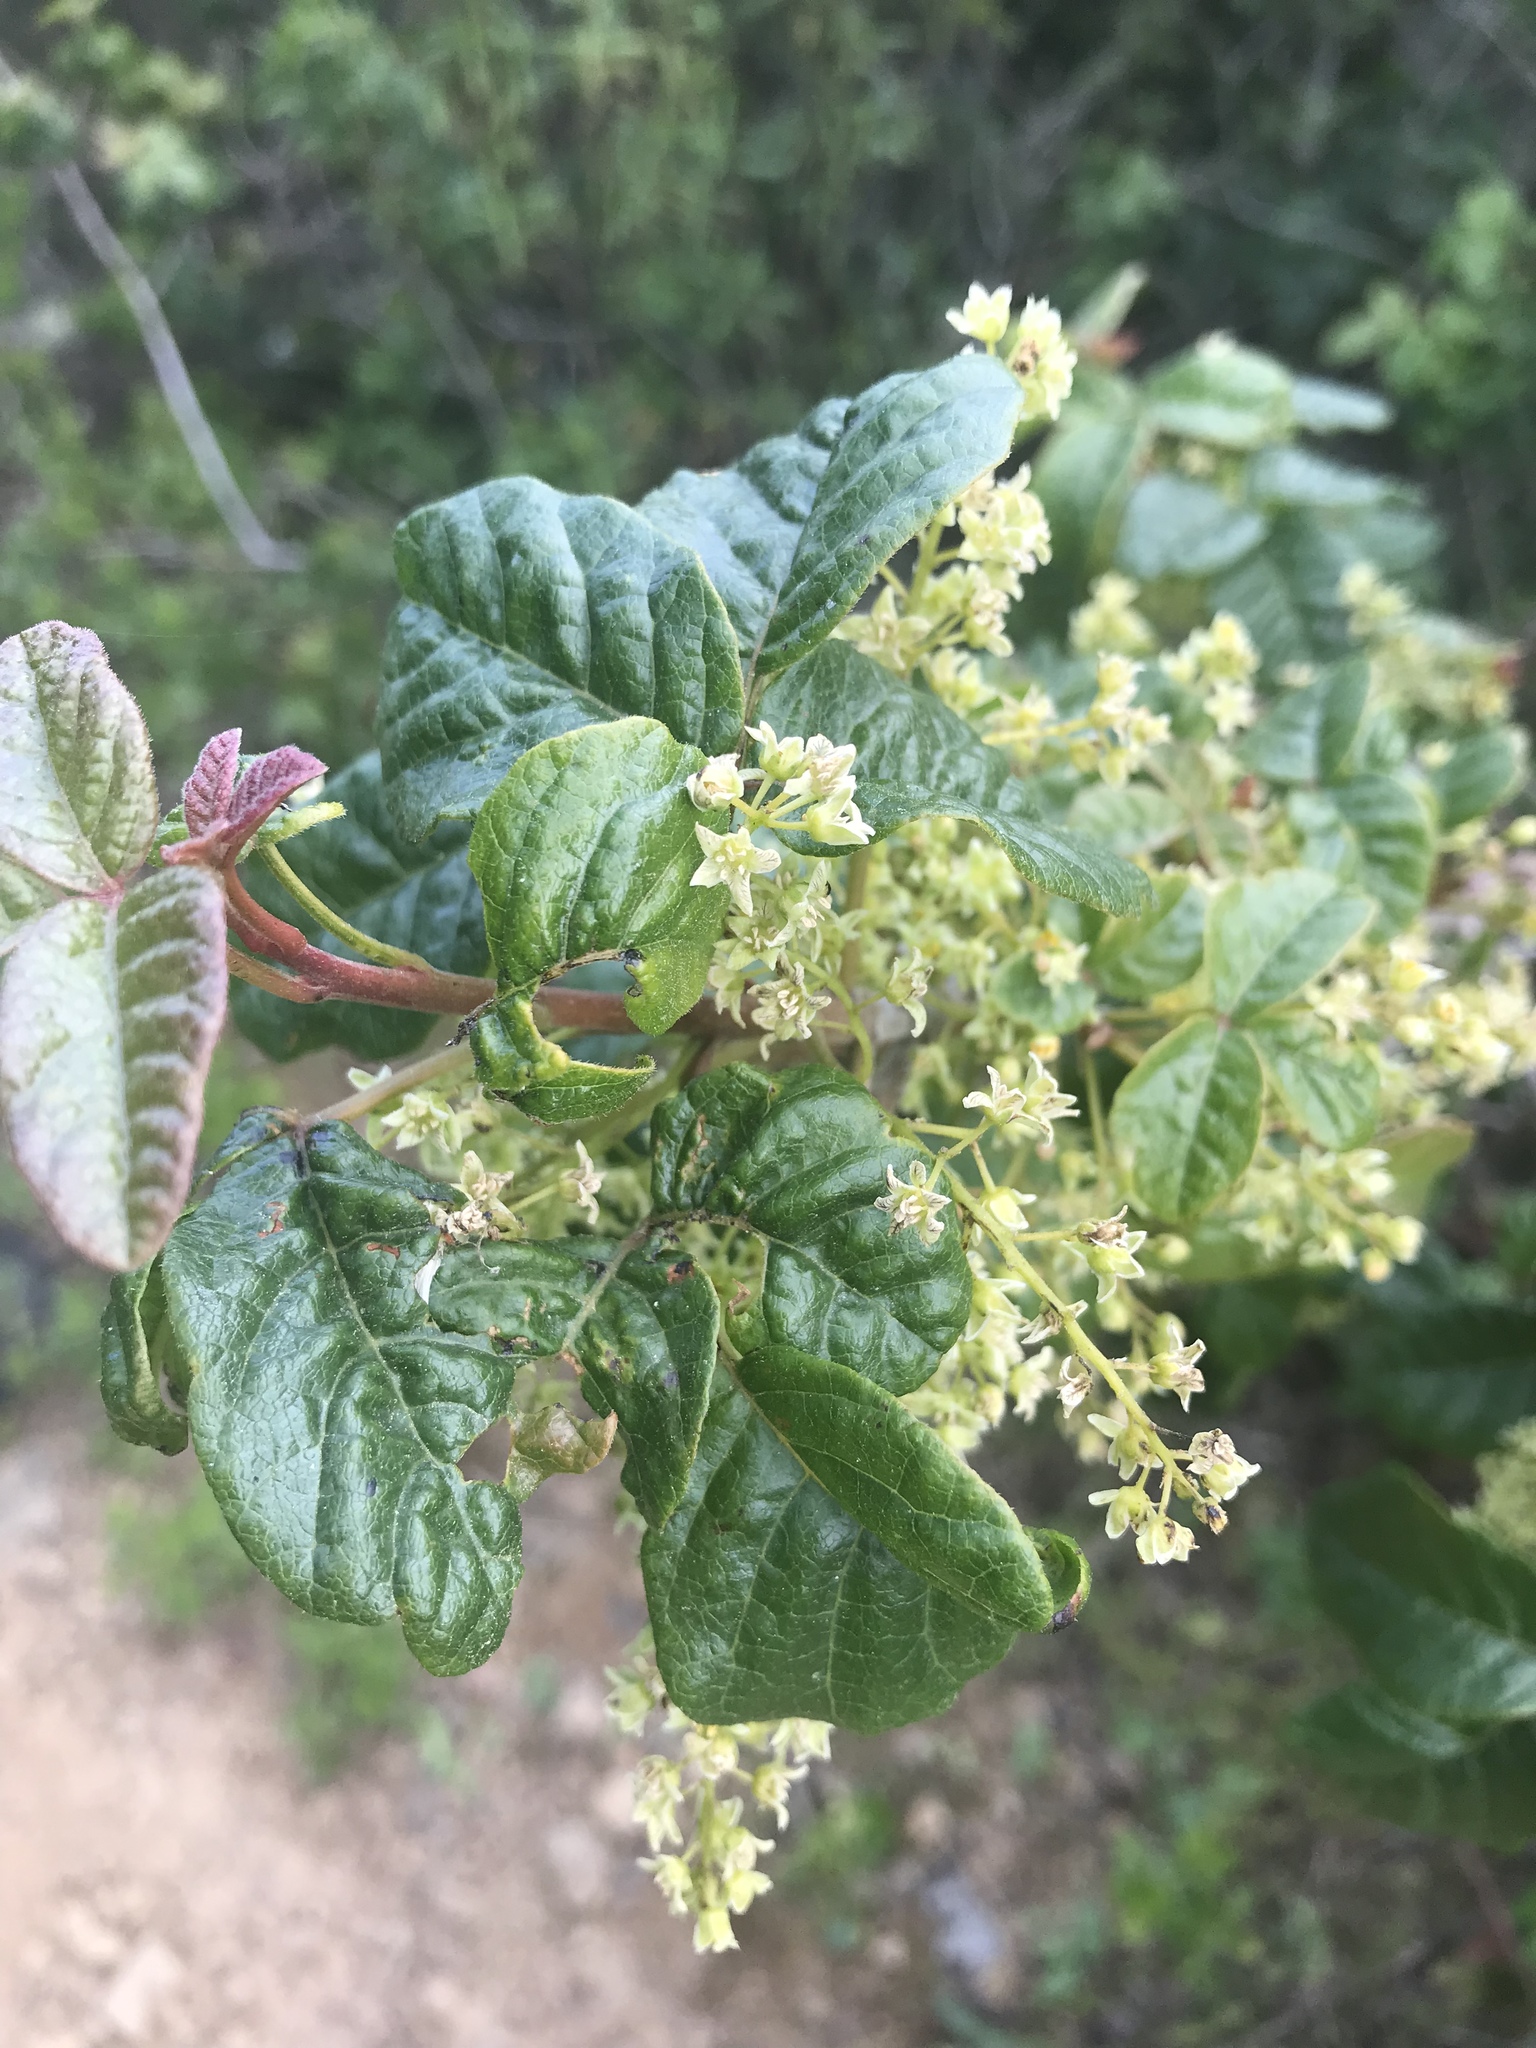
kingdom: Plantae
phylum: Tracheophyta
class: Magnoliopsida
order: Sapindales
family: Anacardiaceae
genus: Toxicodendron
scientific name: Toxicodendron diversilobum
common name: Pacific poison-oak
